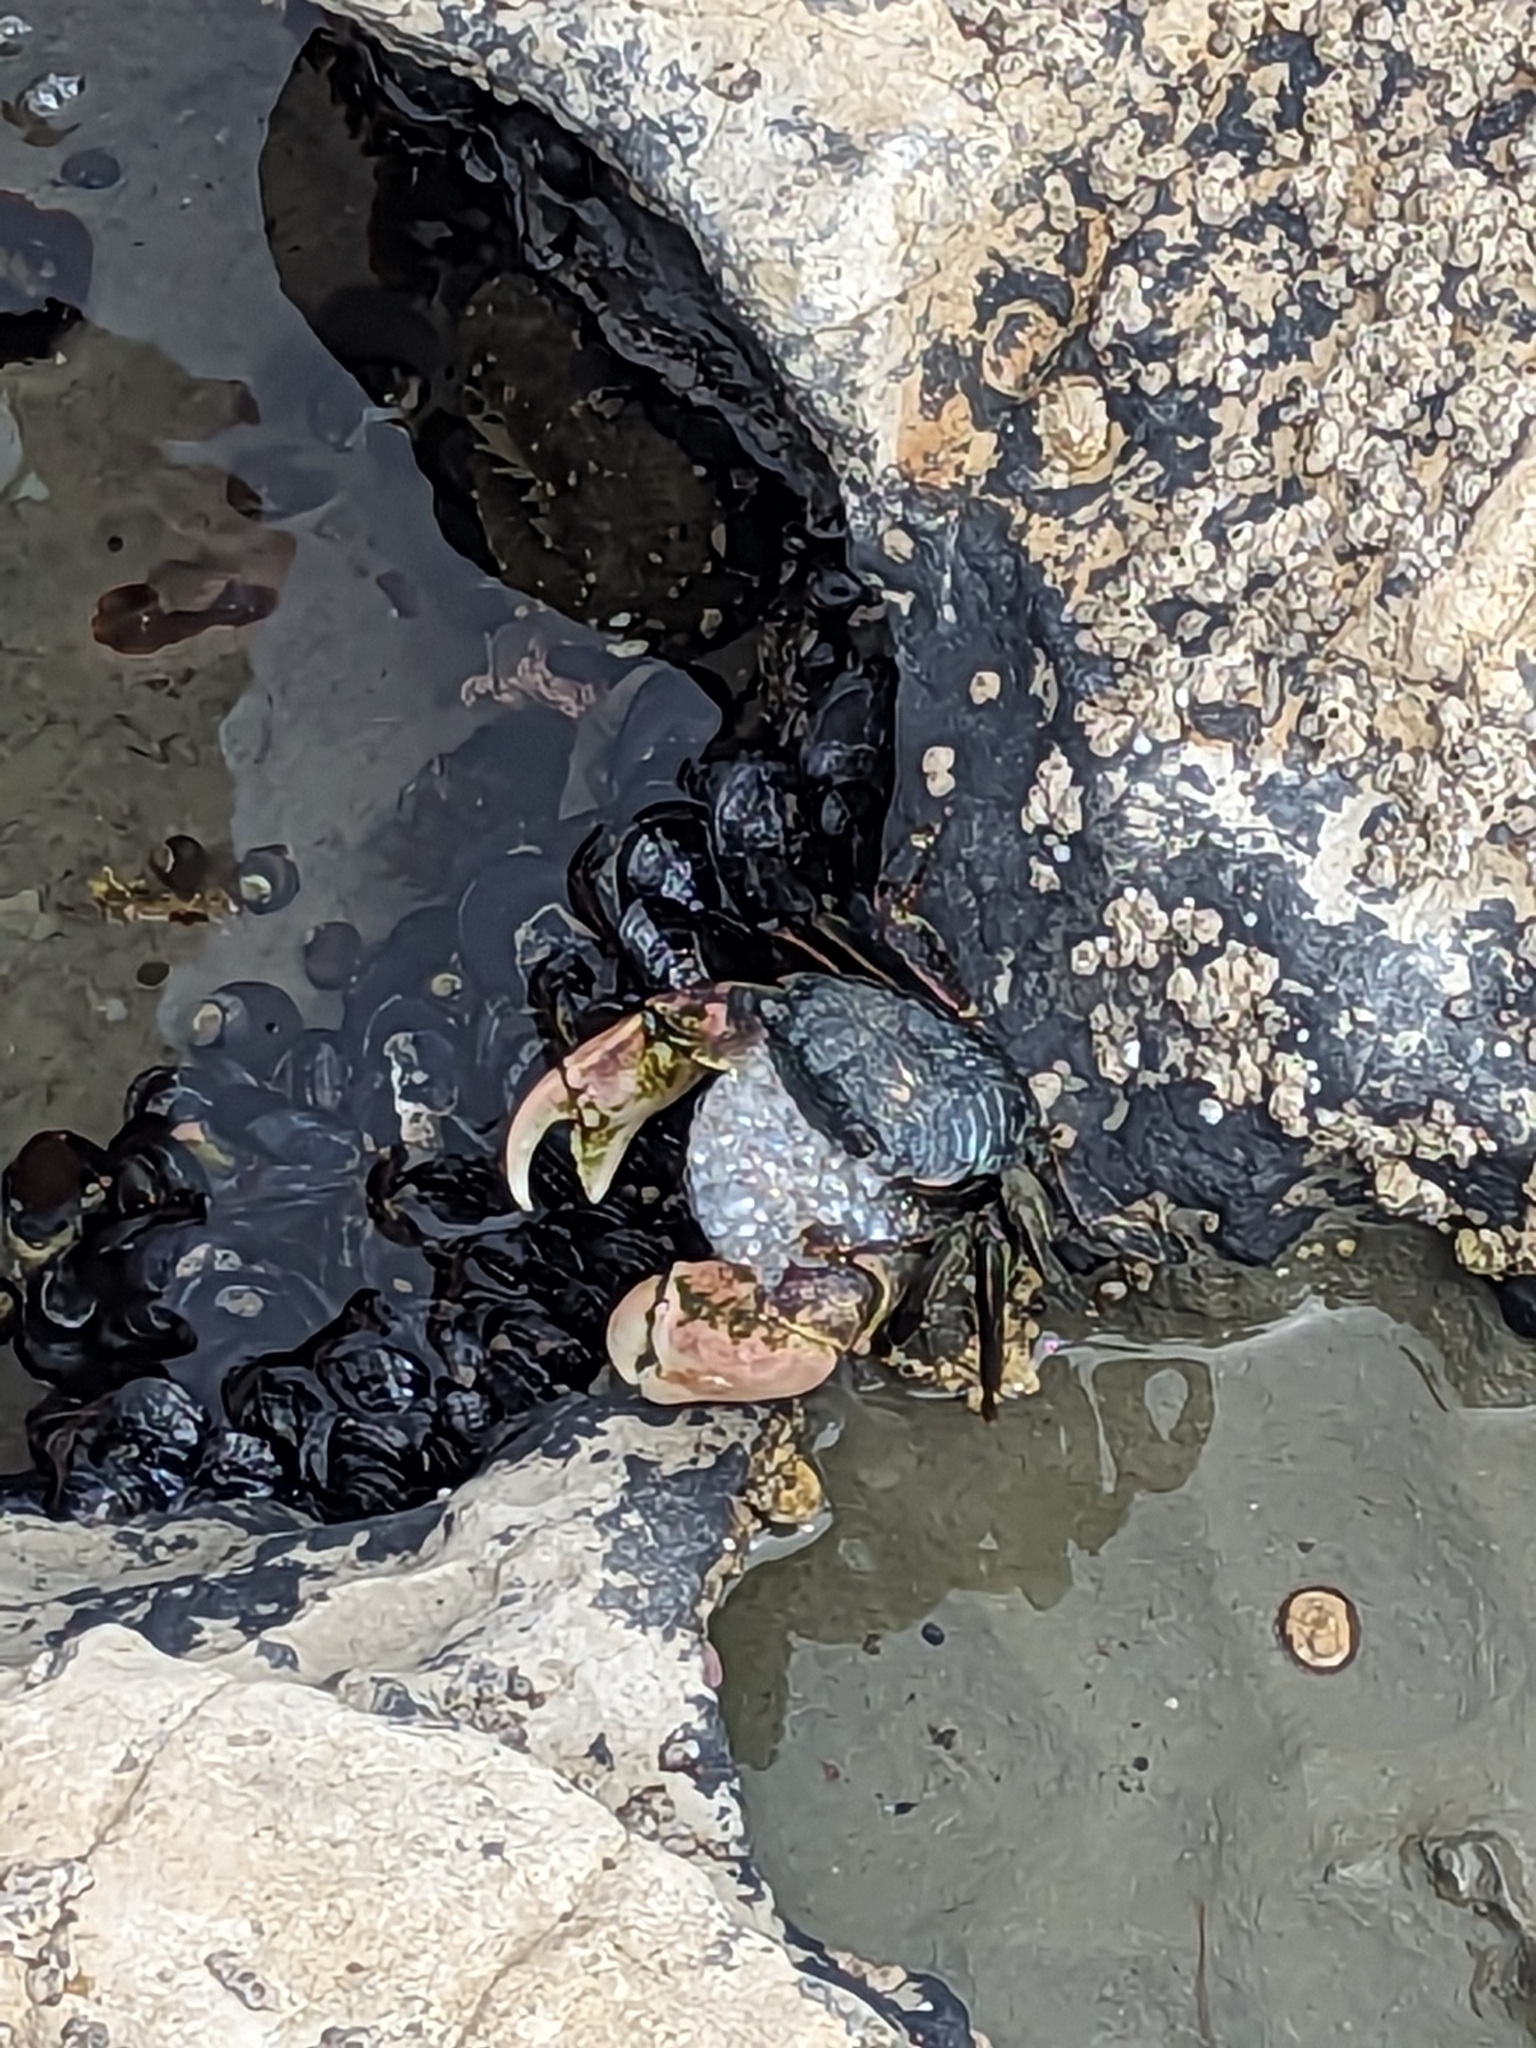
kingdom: Animalia
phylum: Arthropoda
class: Malacostraca
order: Decapoda
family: Grapsidae
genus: Pachygrapsus
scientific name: Pachygrapsus crassipes
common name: Striped shore crab
